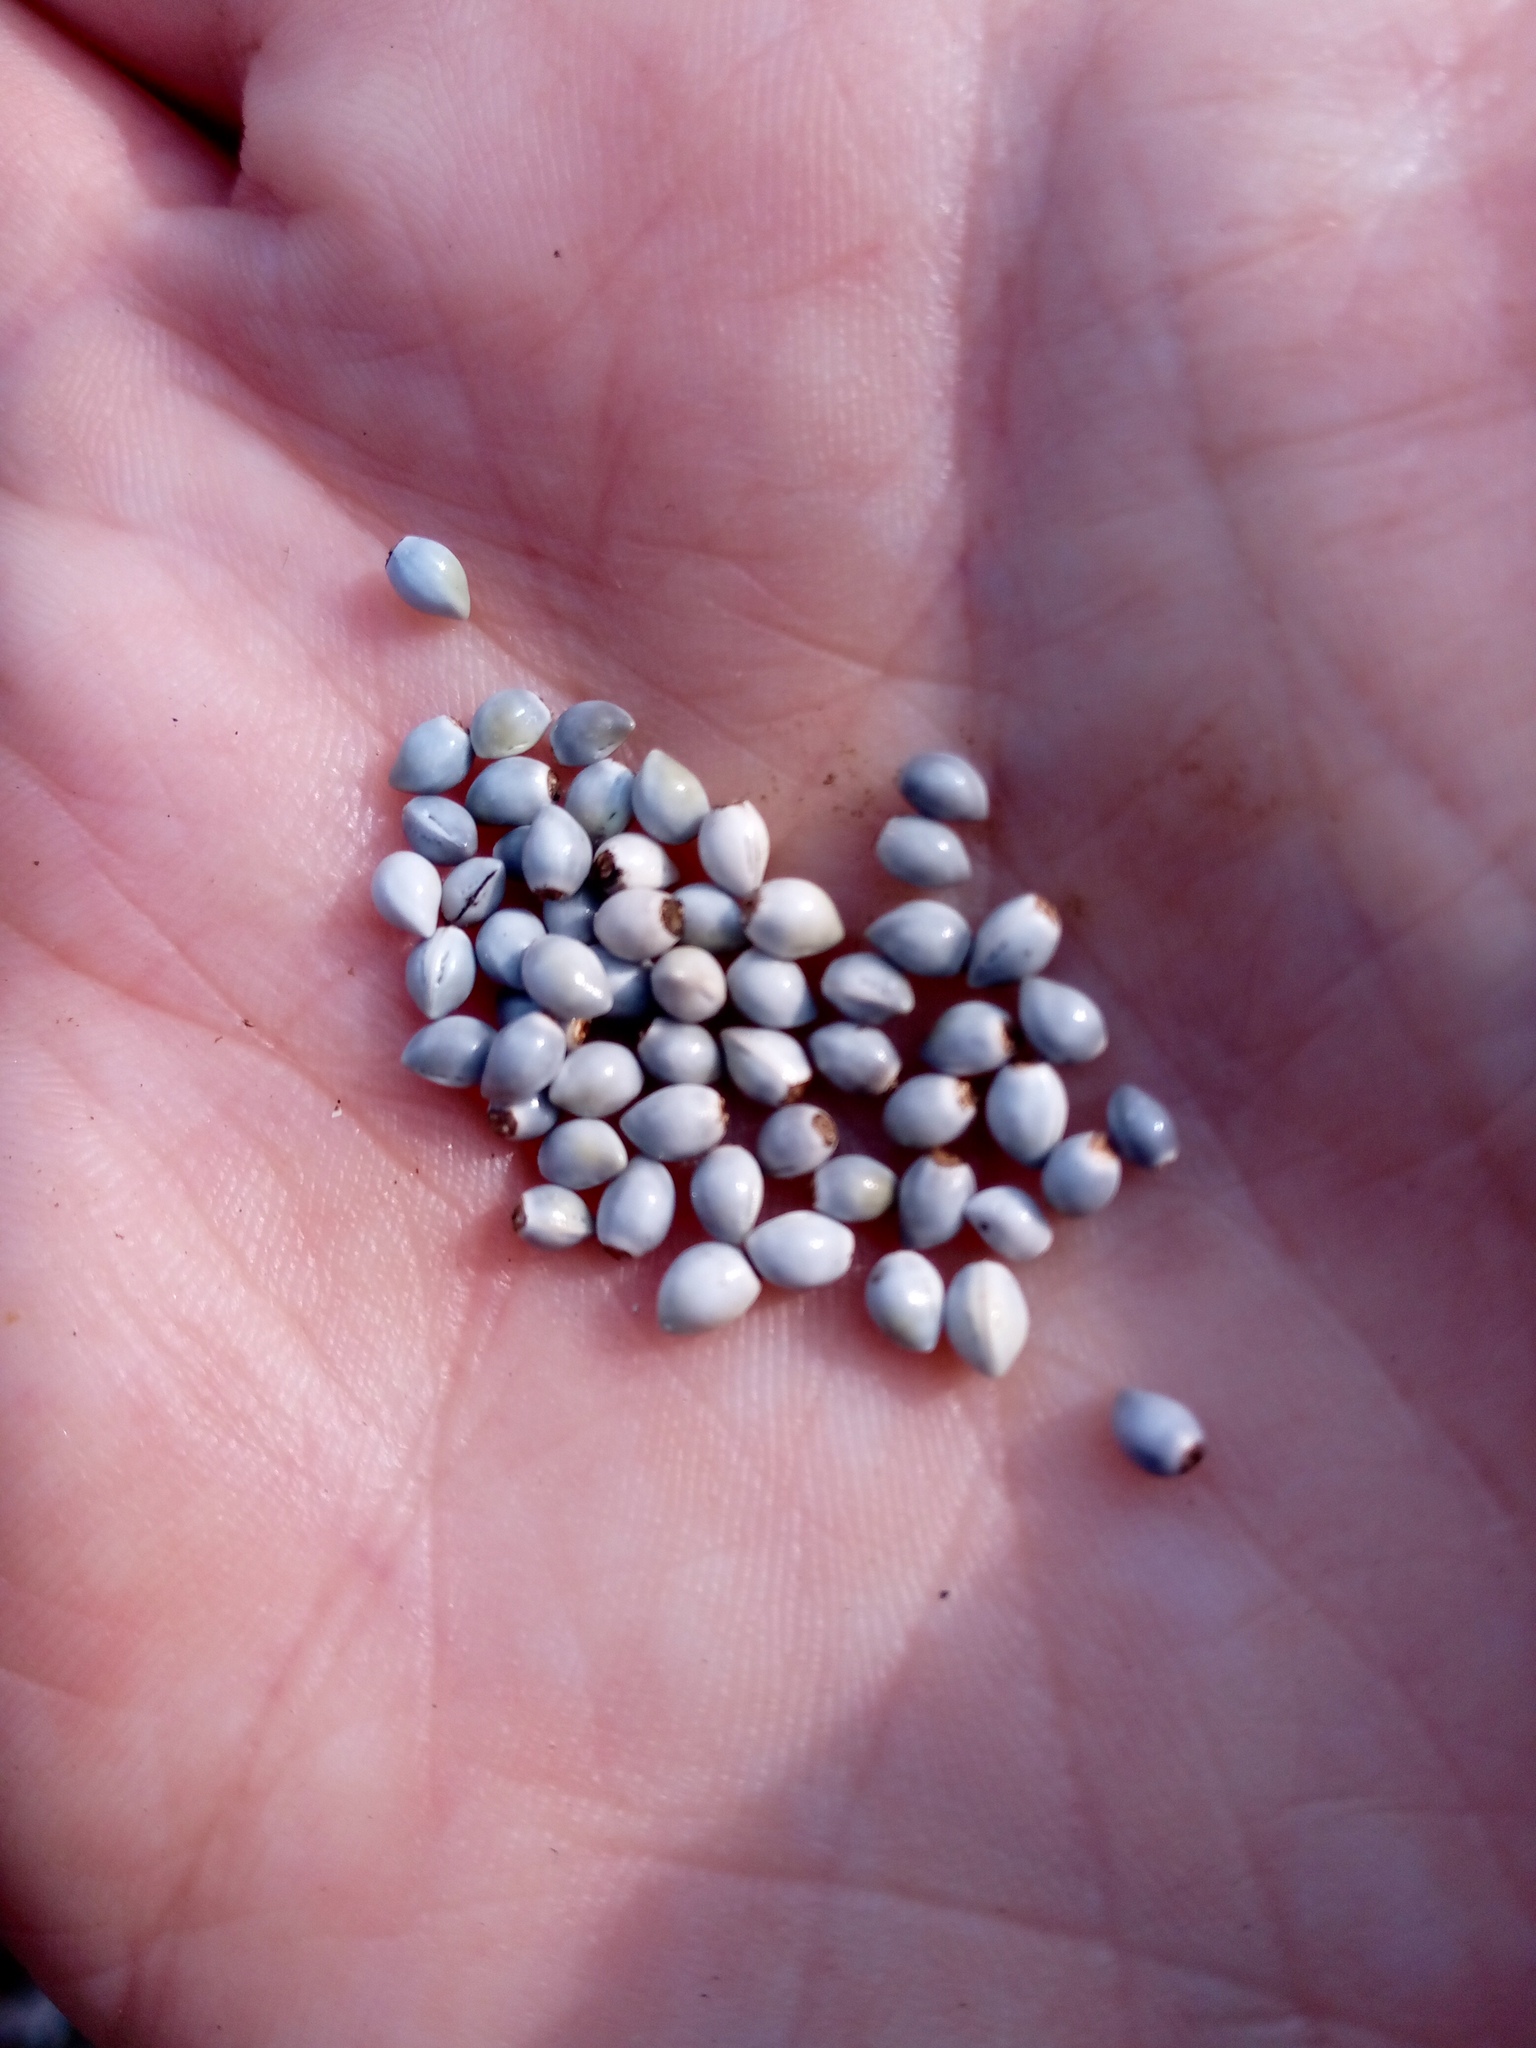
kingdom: Plantae
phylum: Tracheophyta
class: Magnoliopsida
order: Boraginales
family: Boraginaceae
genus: Lithospermum
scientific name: Lithospermum officinale
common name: Common gromwell
